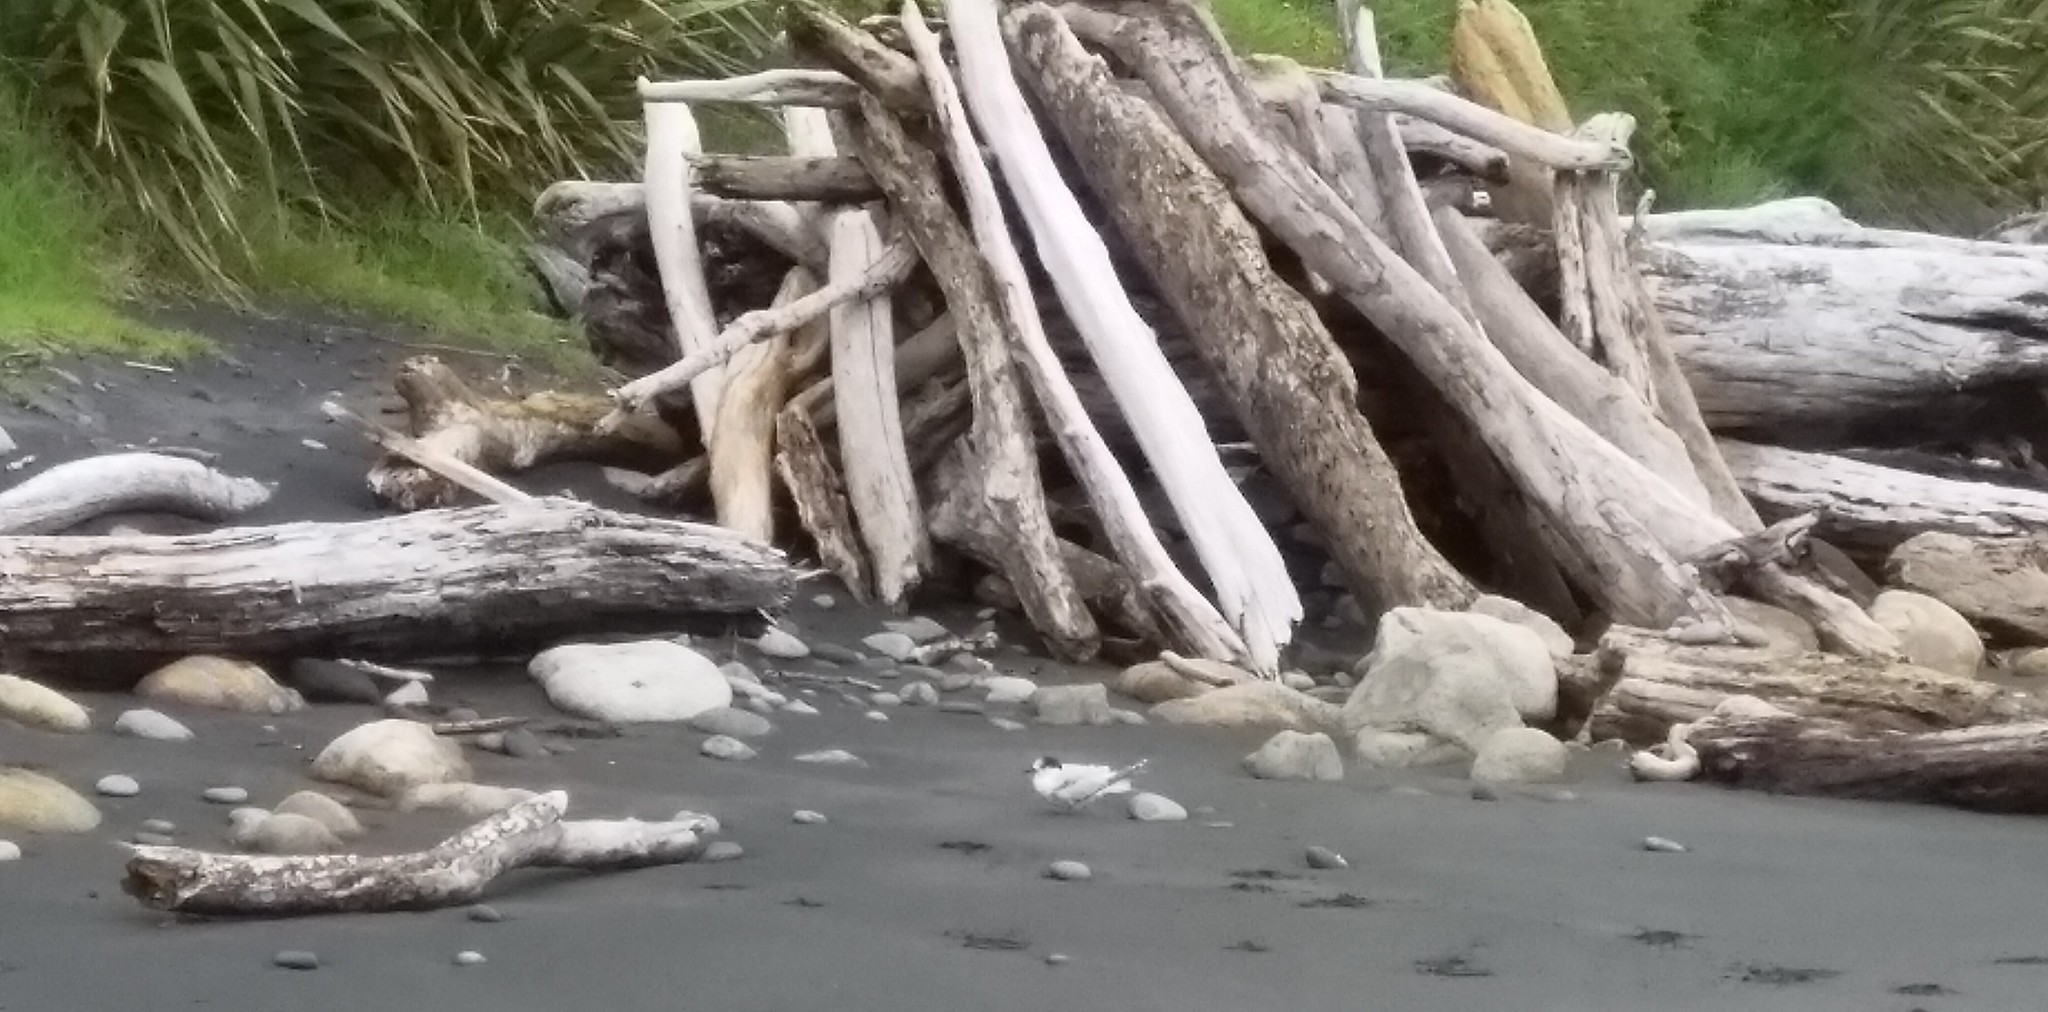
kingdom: Animalia
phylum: Chordata
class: Aves
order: Charadriiformes
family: Laridae
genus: Sterna
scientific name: Sterna striata
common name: White-fronted tern
